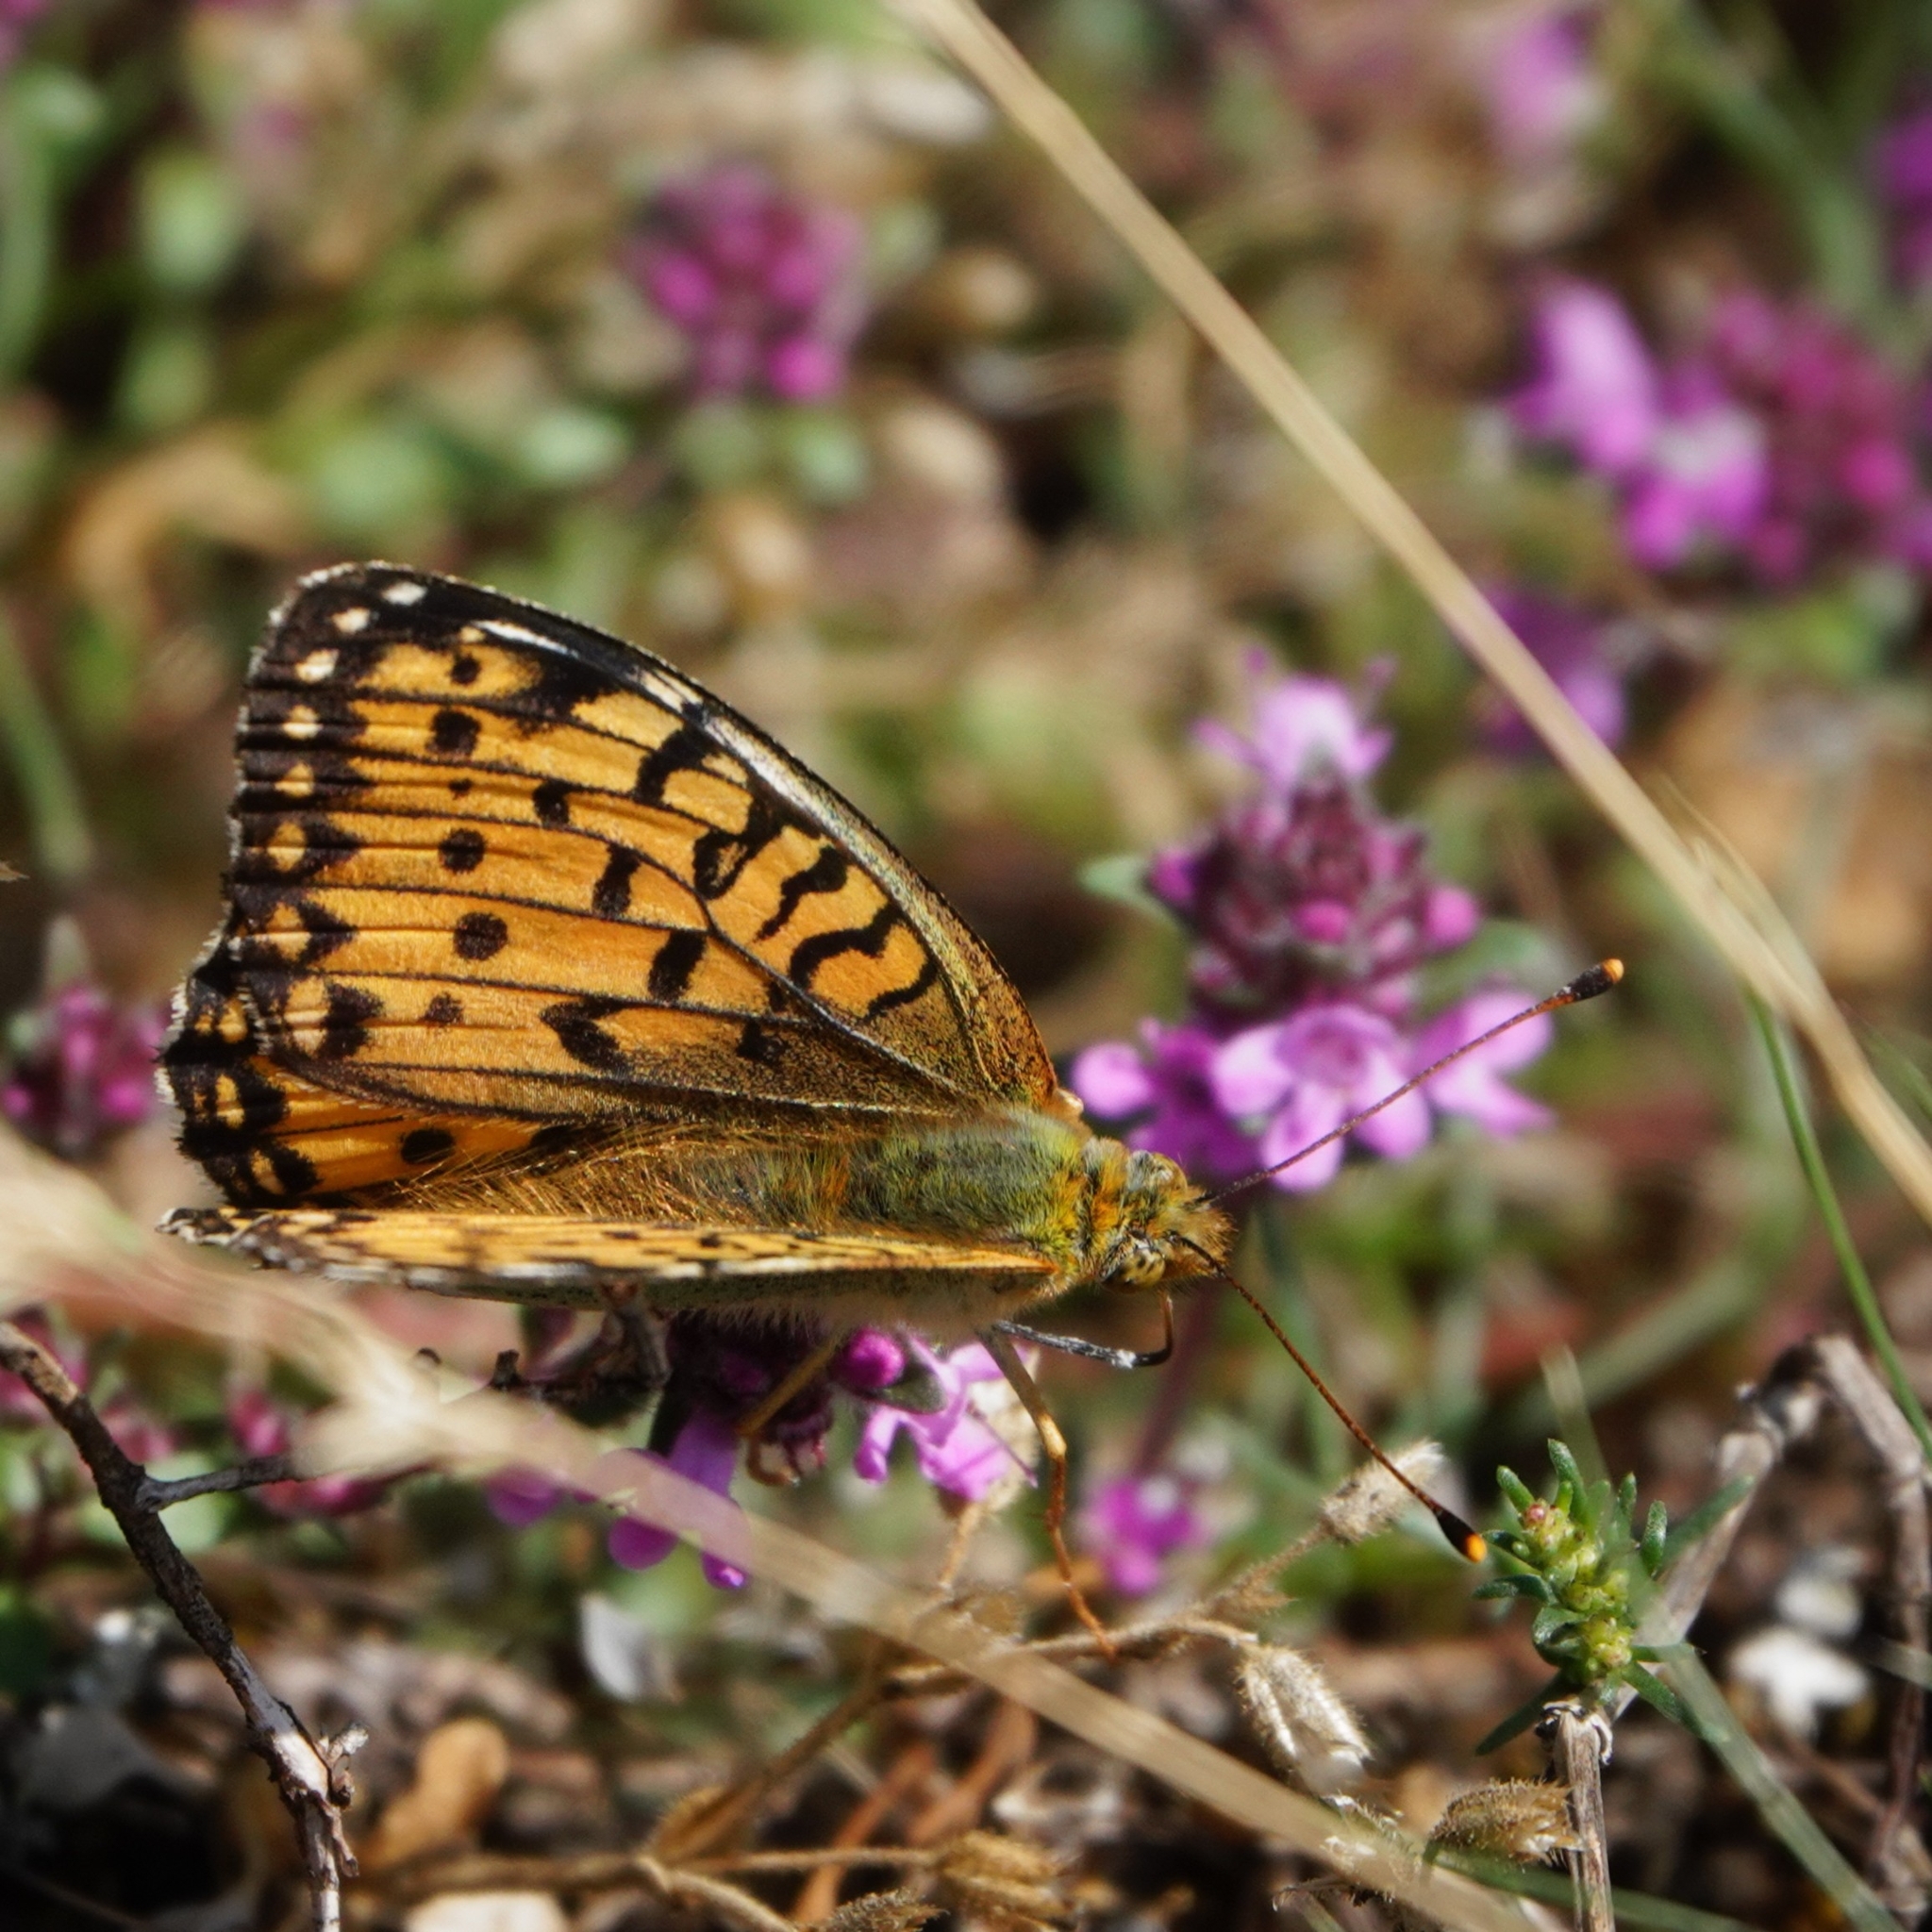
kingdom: Animalia
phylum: Arthropoda
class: Insecta
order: Lepidoptera
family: Nymphalidae
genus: Speyeria
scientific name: Speyeria aglaja
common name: Dark green fritillary
